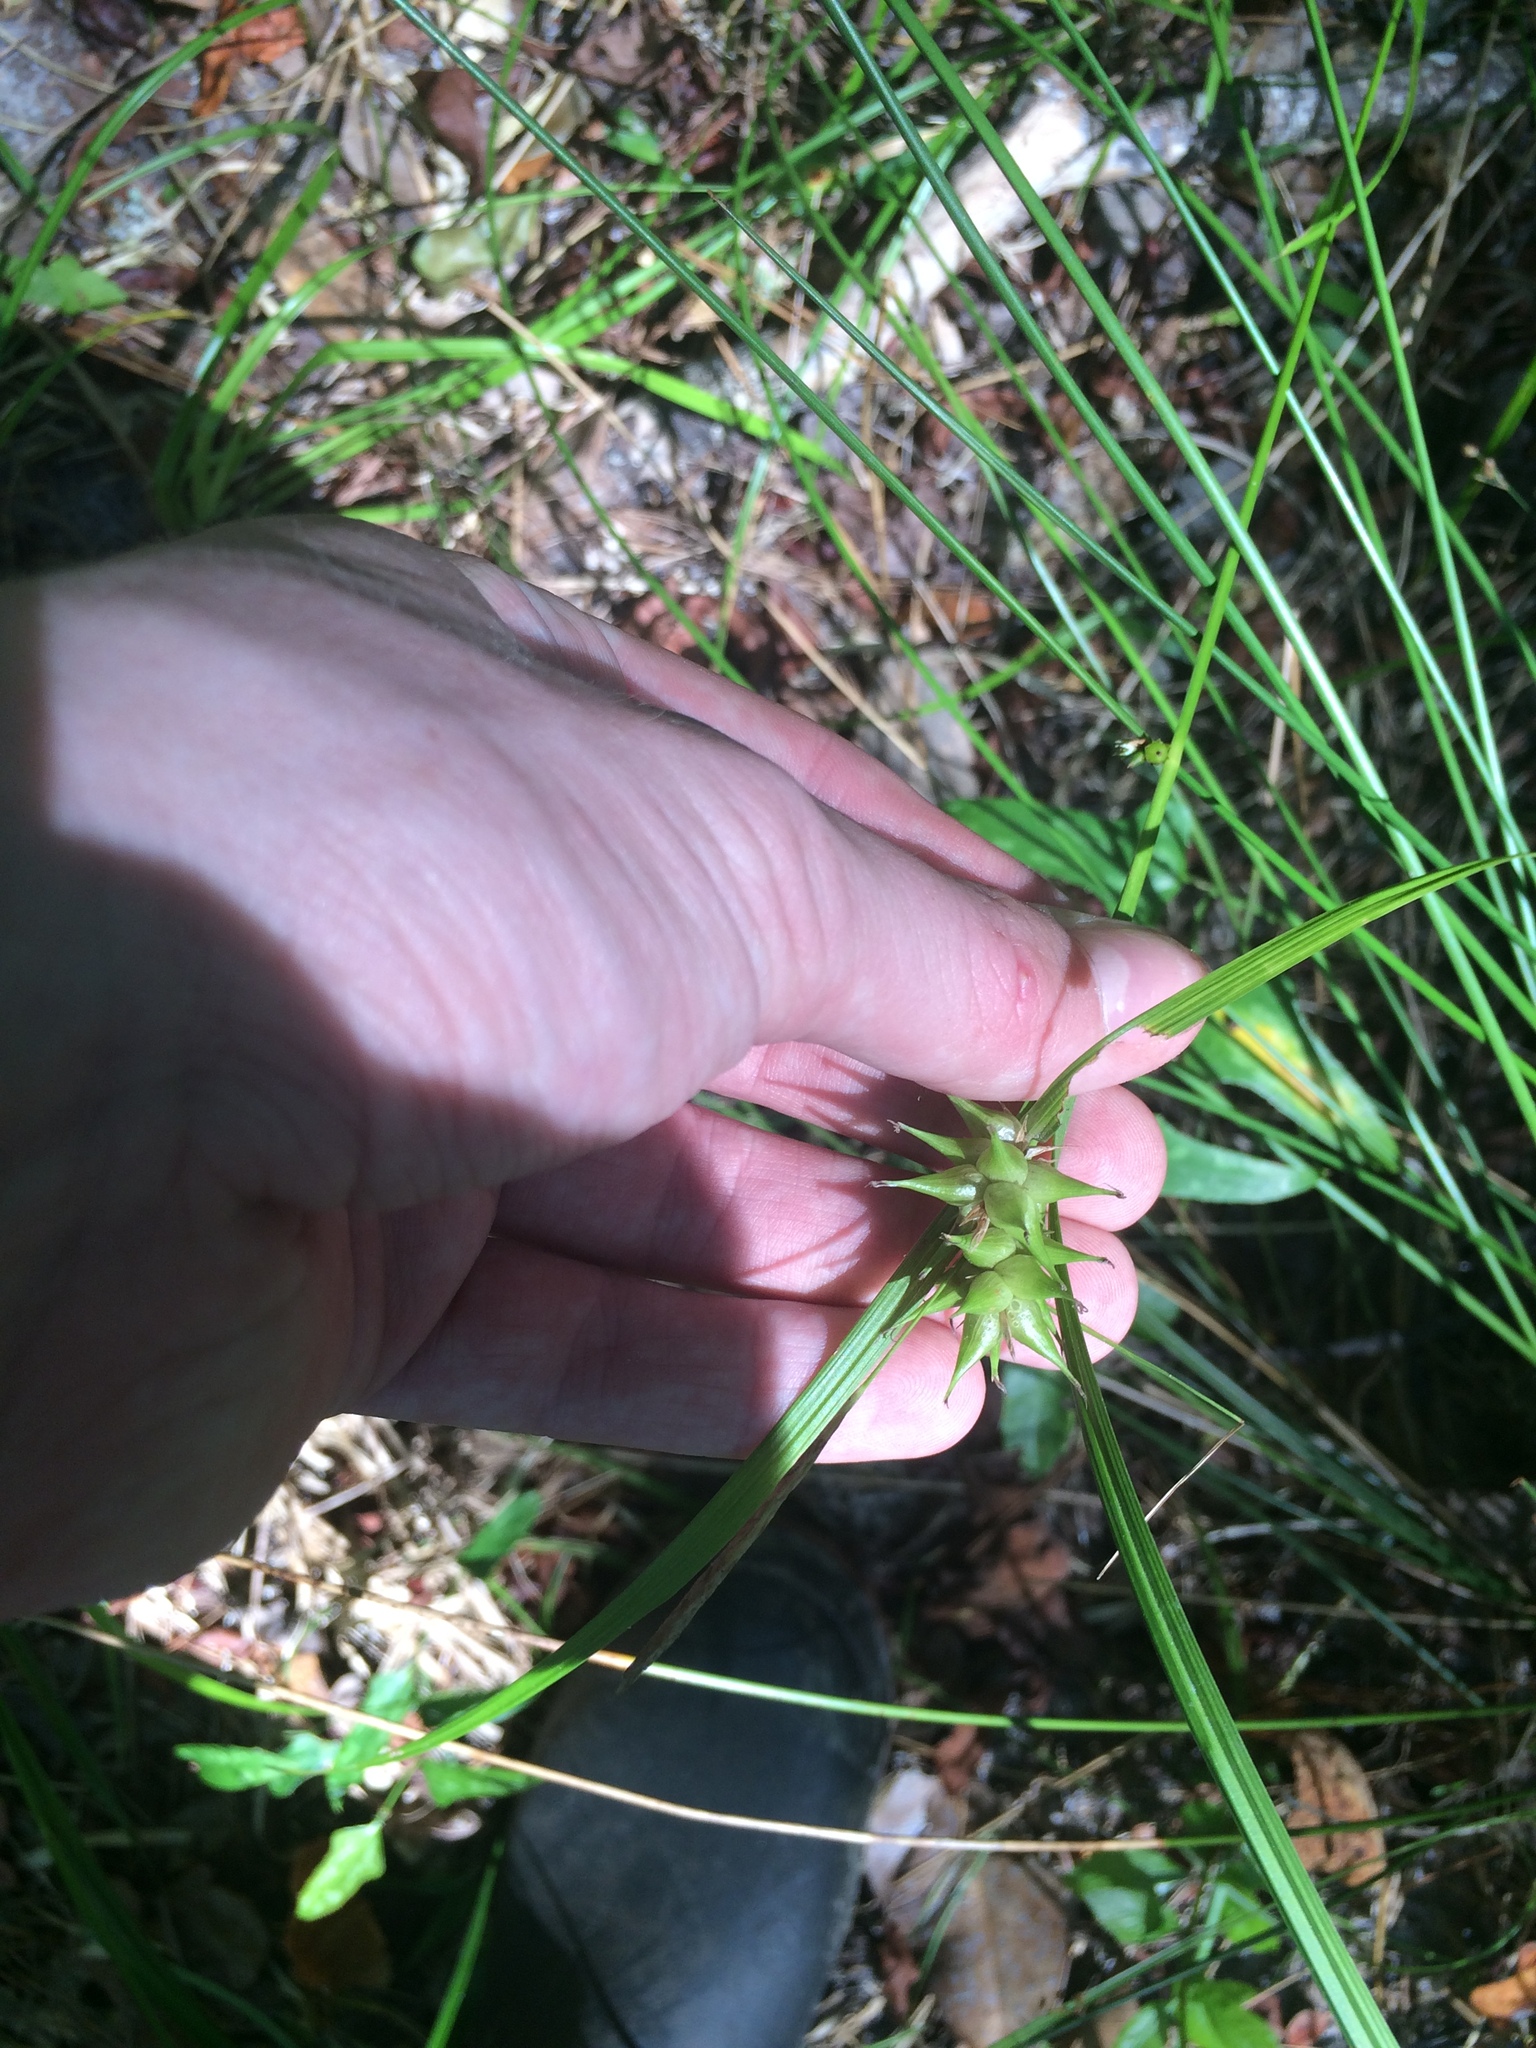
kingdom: Plantae
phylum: Tracheophyta
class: Liliopsida
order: Poales
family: Cyperaceae
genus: Carex
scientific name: Carex intumescens
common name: Greater bladder sedge
